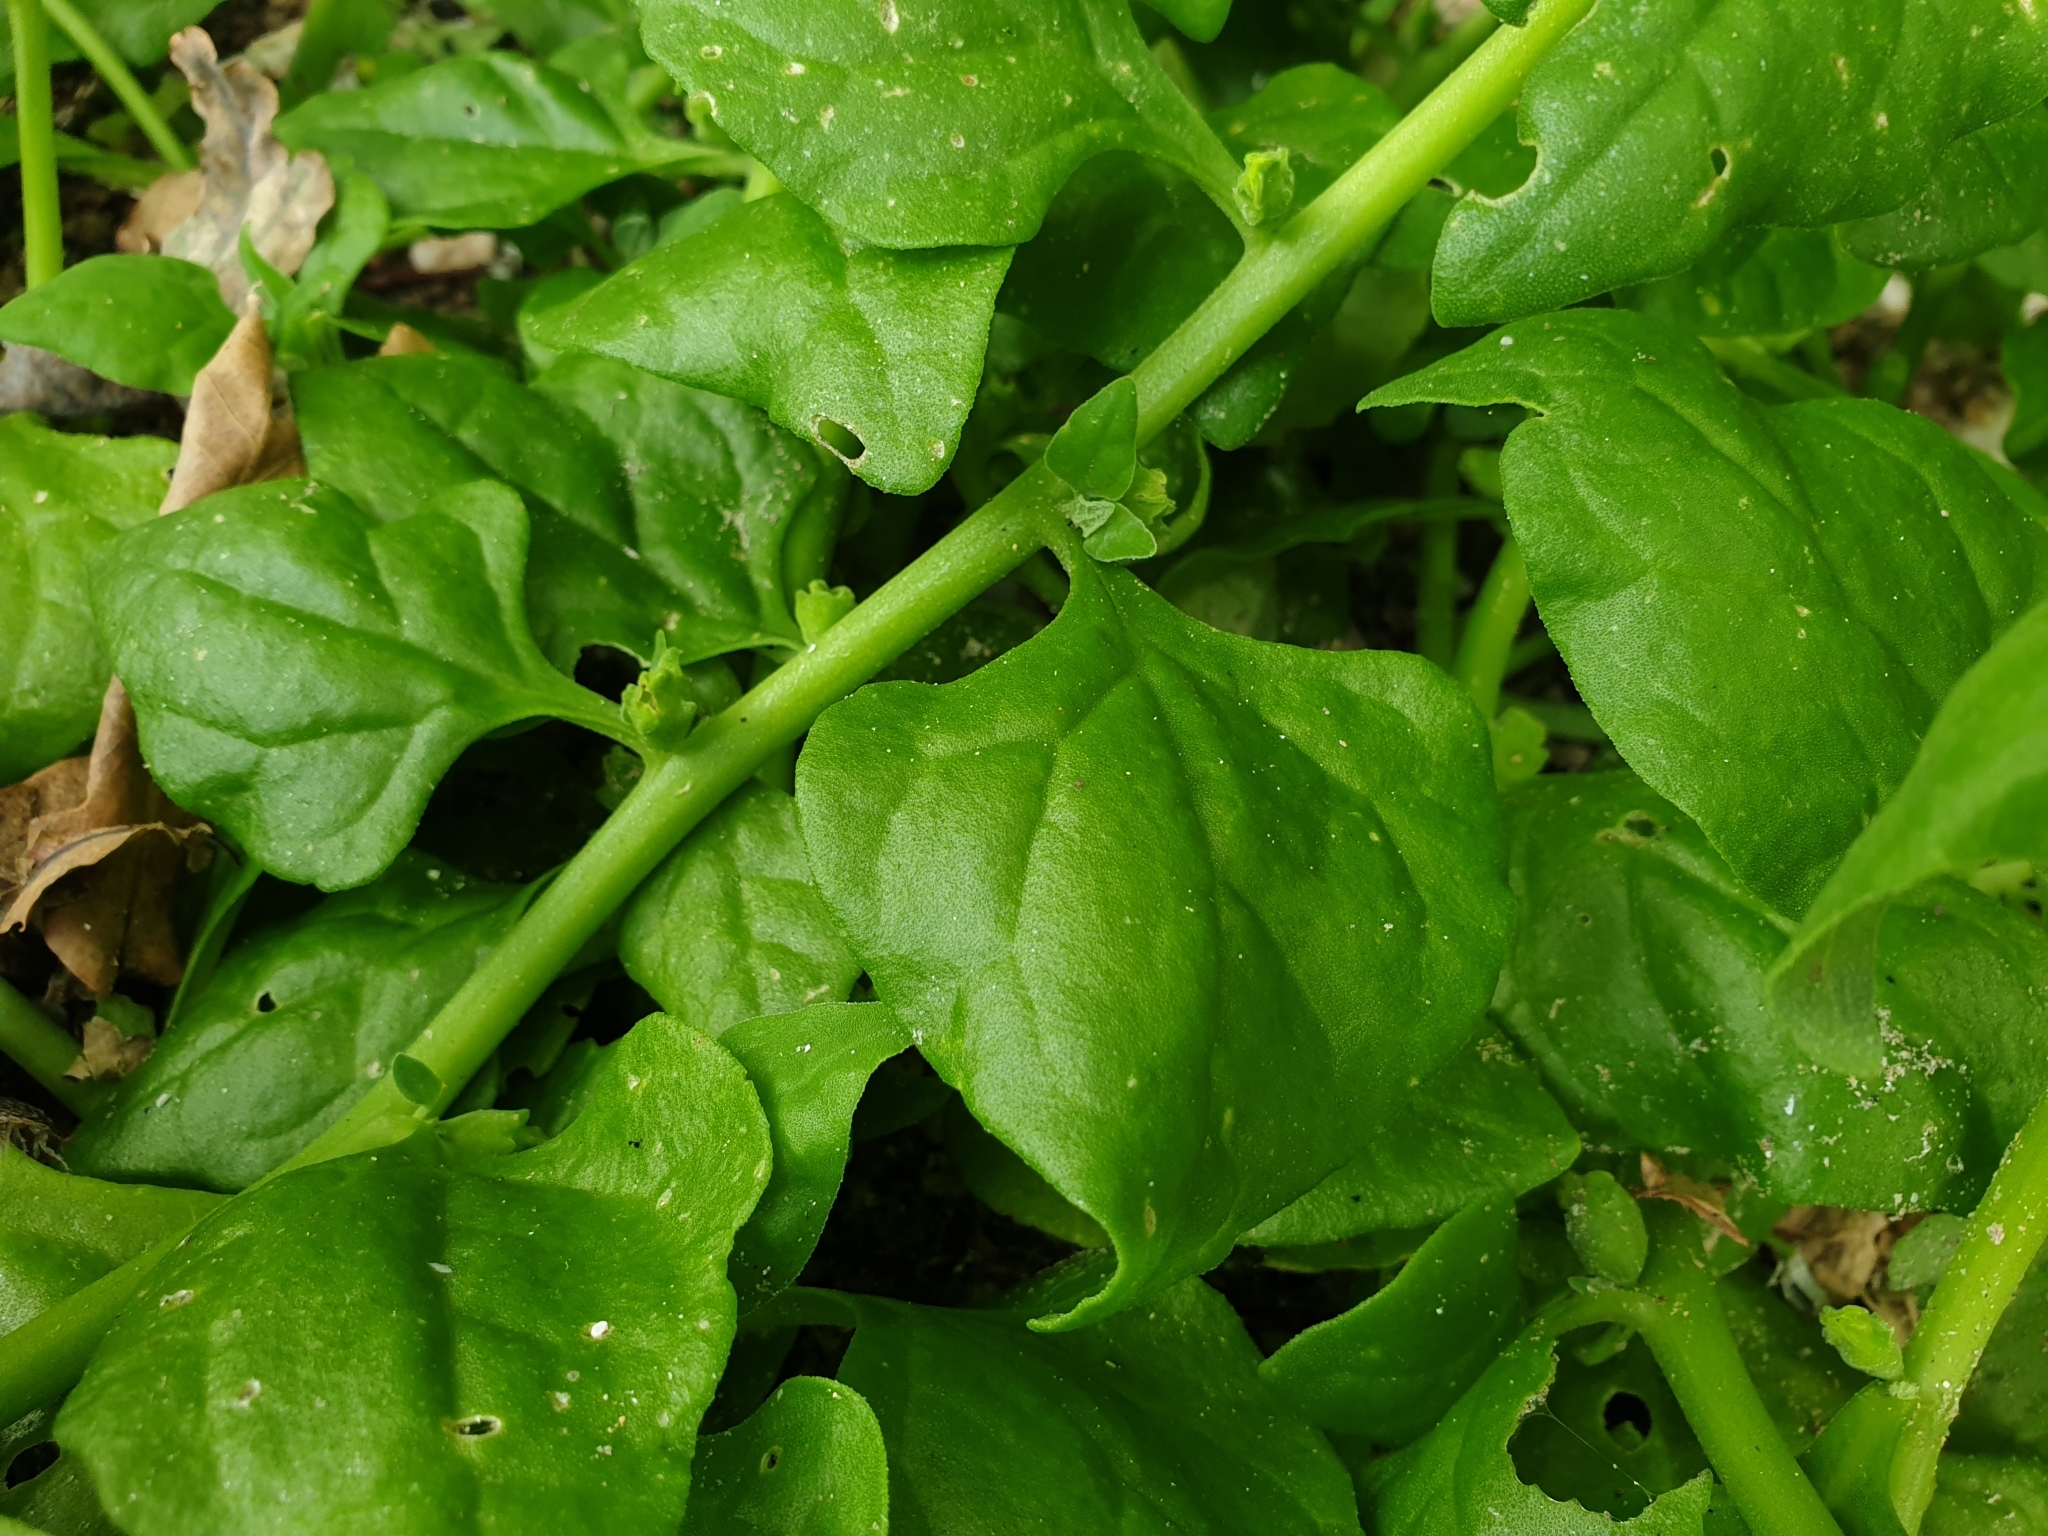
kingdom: Plantae
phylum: Tracheophyta
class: Magnoliopsida
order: Caryophyllales
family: Aizoaceae
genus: Tetragonia
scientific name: Tetragonia tetragonoides
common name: New zealand-spinach
